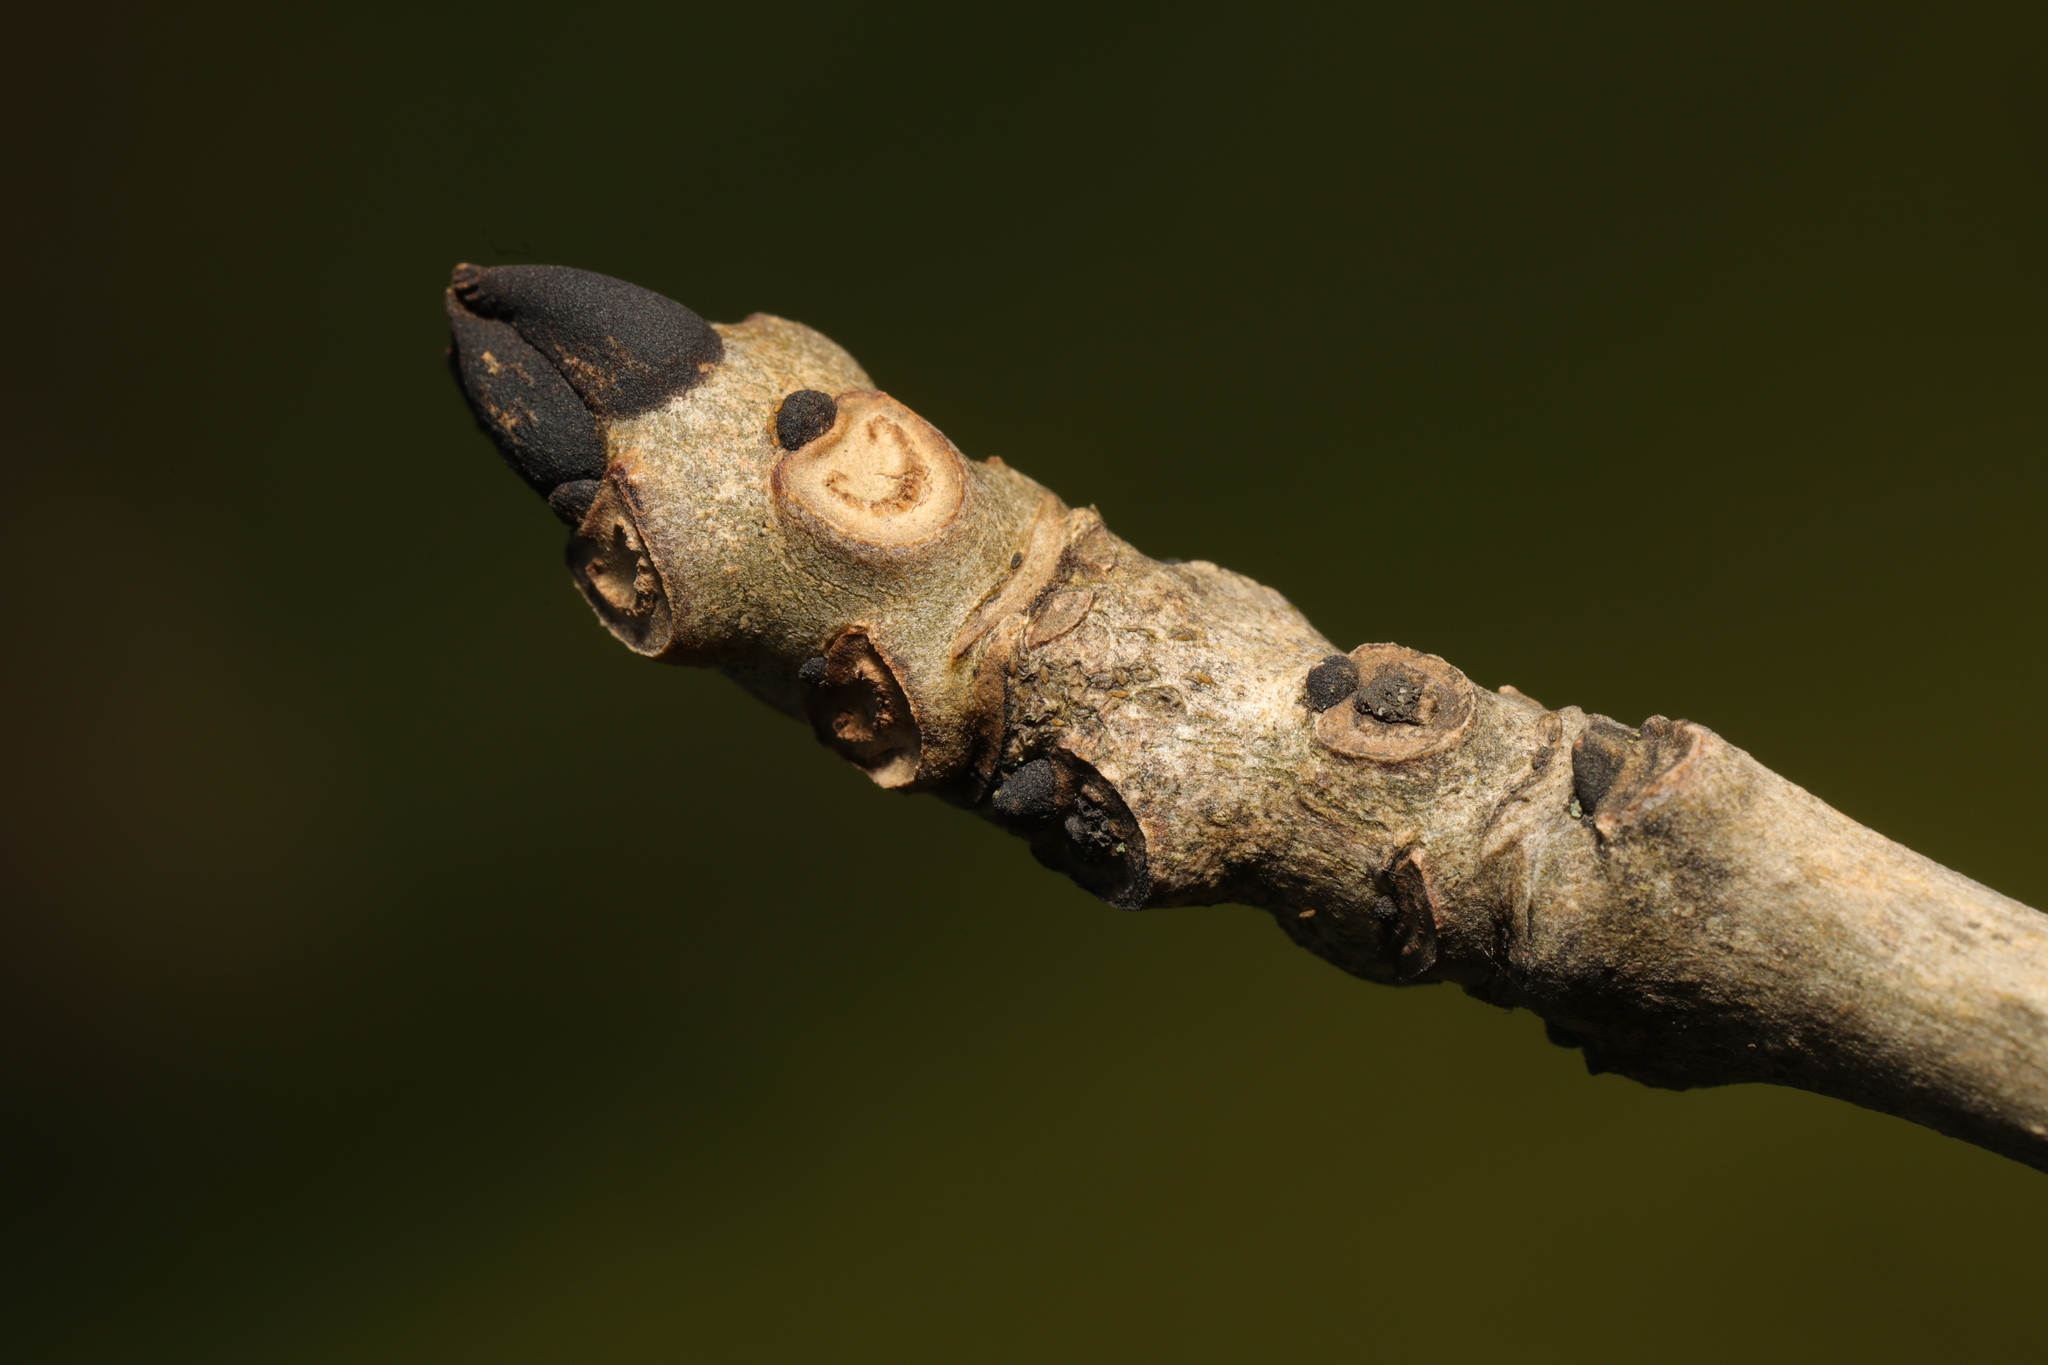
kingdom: Plantae
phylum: Tracheophyta
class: Magnoliopsida
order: Lamiales
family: Oleaceae
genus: Fraxinus
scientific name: Fraxinus excelsior
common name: European ash
